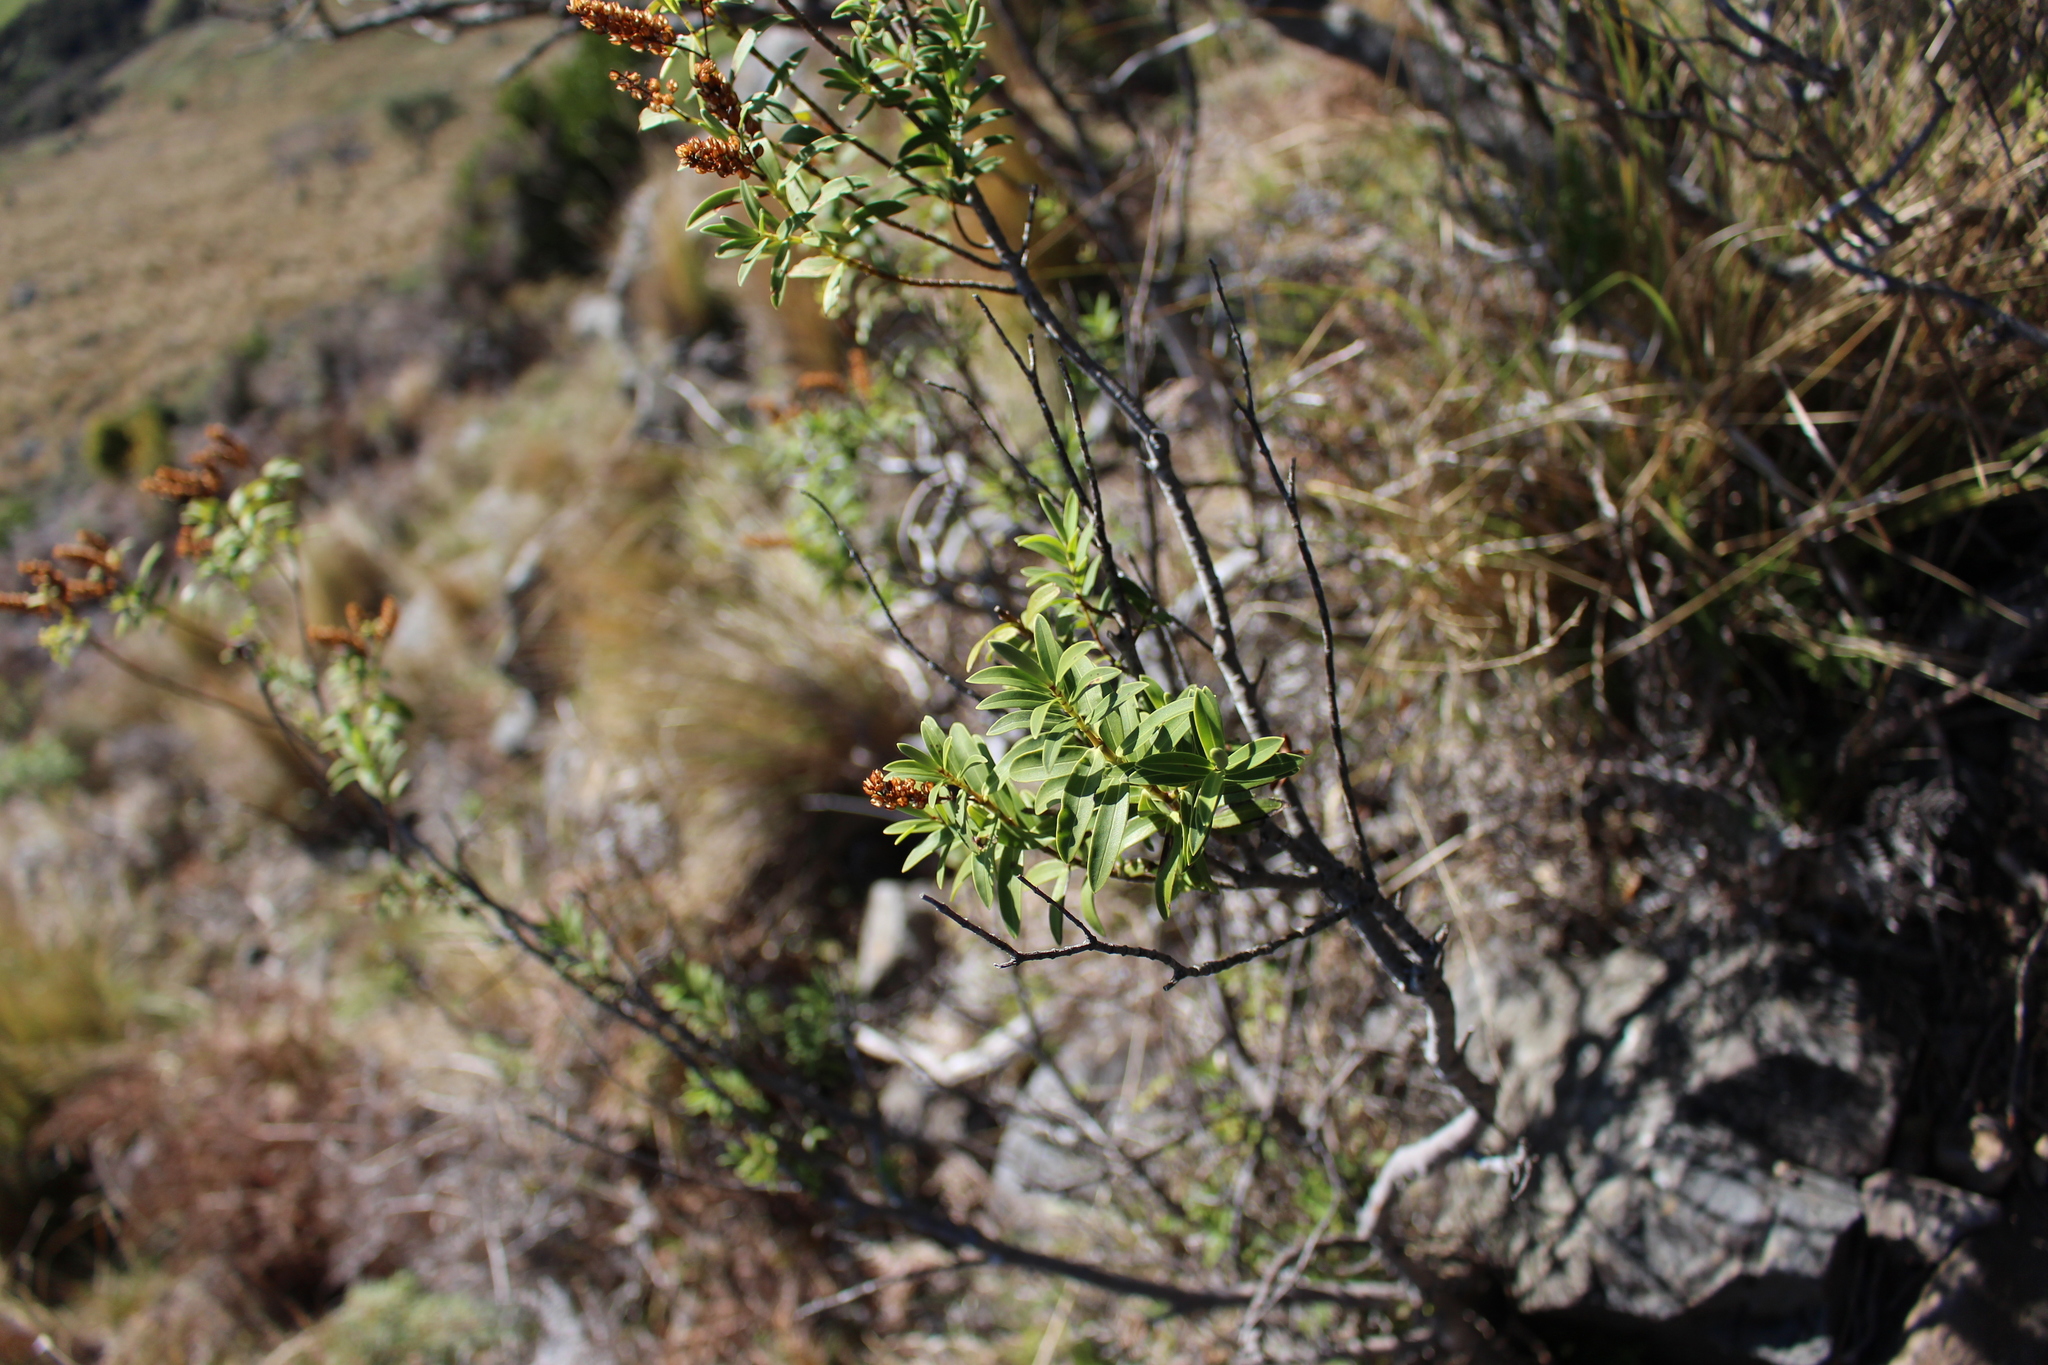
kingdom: Plantae
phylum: Tracheophyta
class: Magnoliopsida
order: Lamiales
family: Plantaginaceae
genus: Veronica
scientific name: Veronica strictissima
